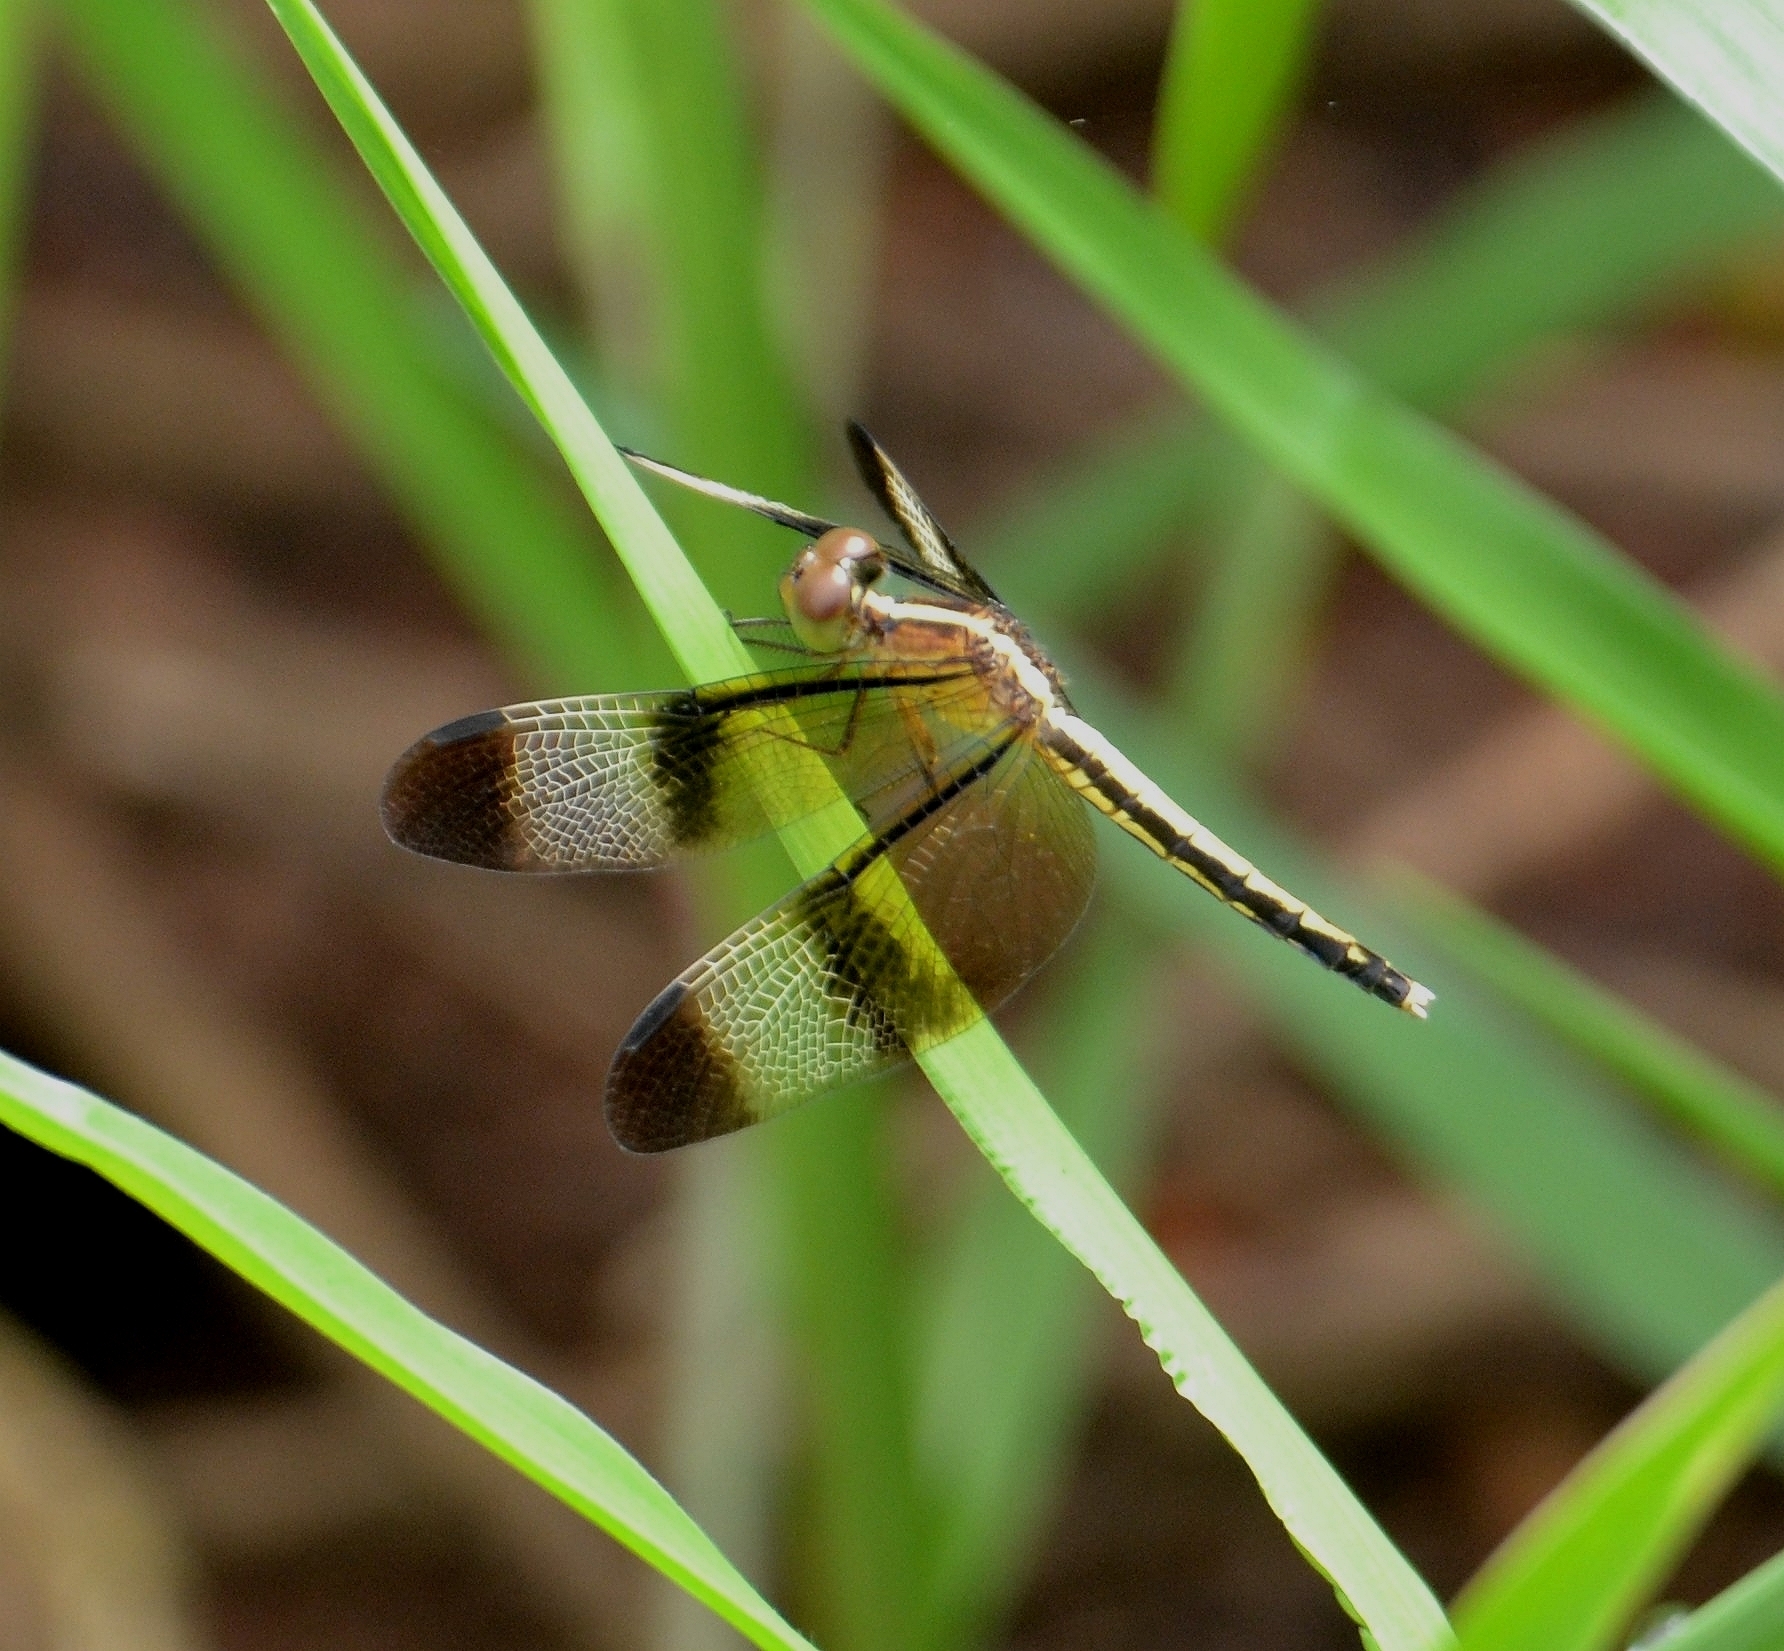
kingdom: Animalia
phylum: Arthropoda
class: Insecta
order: Odonata
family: Libellulidae
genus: Neurothemis
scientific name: Neurothemis tullia
